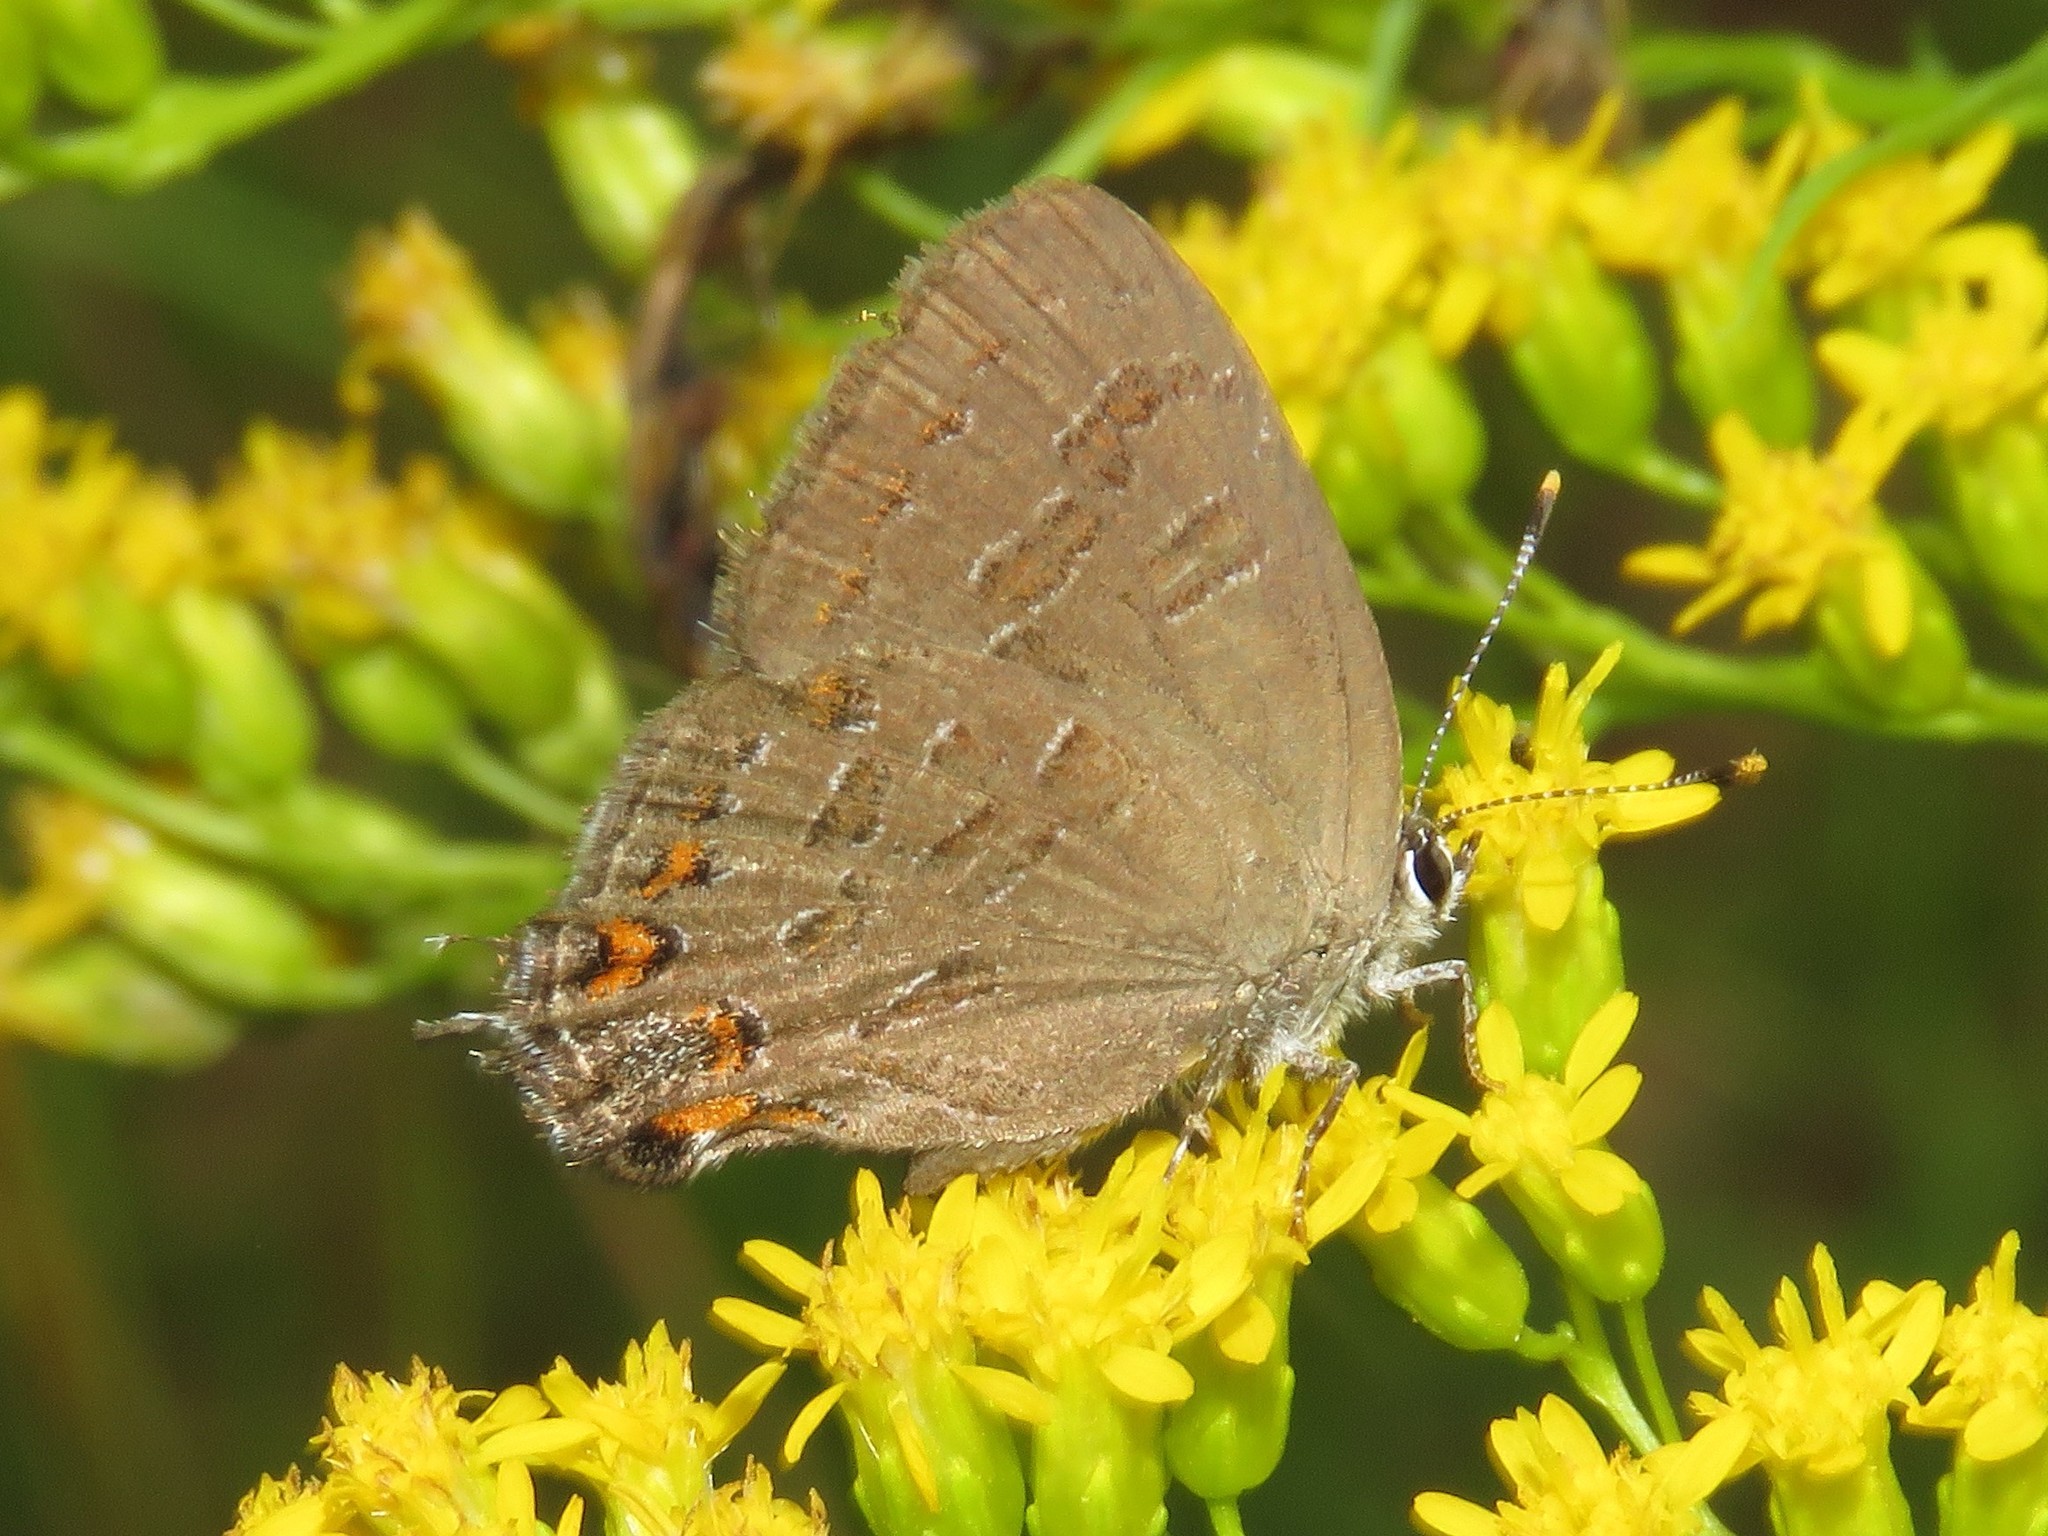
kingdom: Animalia
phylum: Arthropoda
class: Insecta
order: Lepidoptera
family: Lycaenidae
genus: Satyrium
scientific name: Satyrium liparops
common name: Striped hairstreak
